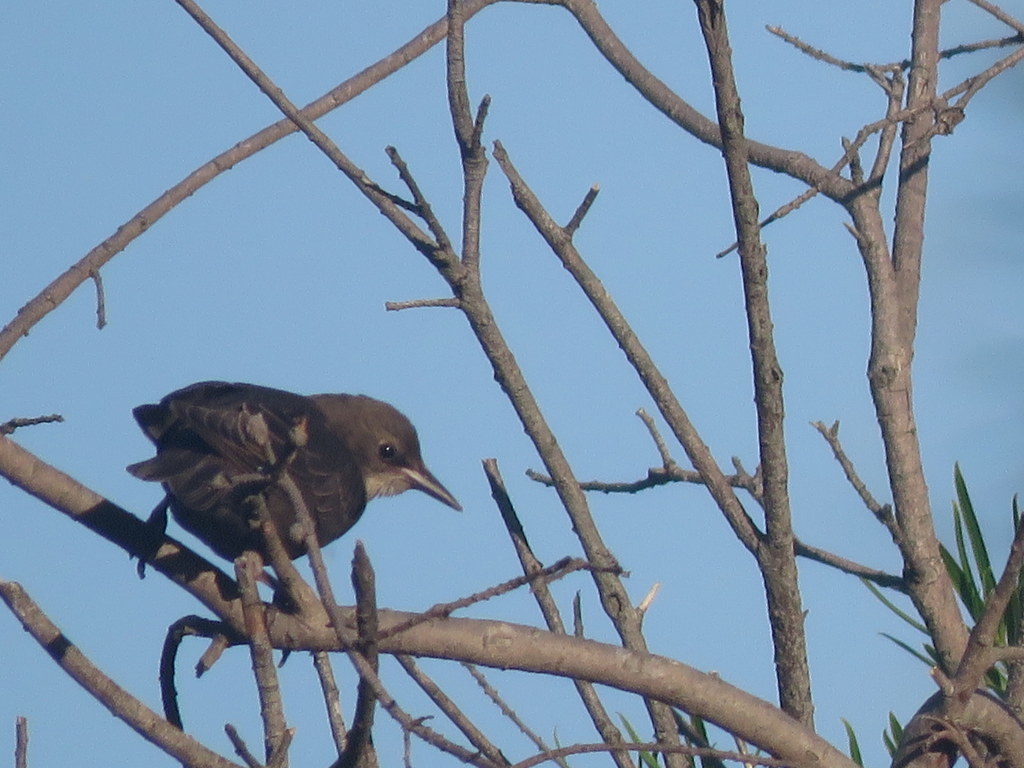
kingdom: Animalia
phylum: Chordata
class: Aves
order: Passeriformes
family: Sturnidae
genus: Sturnus
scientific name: Sturnus vulgaris
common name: Common starling
